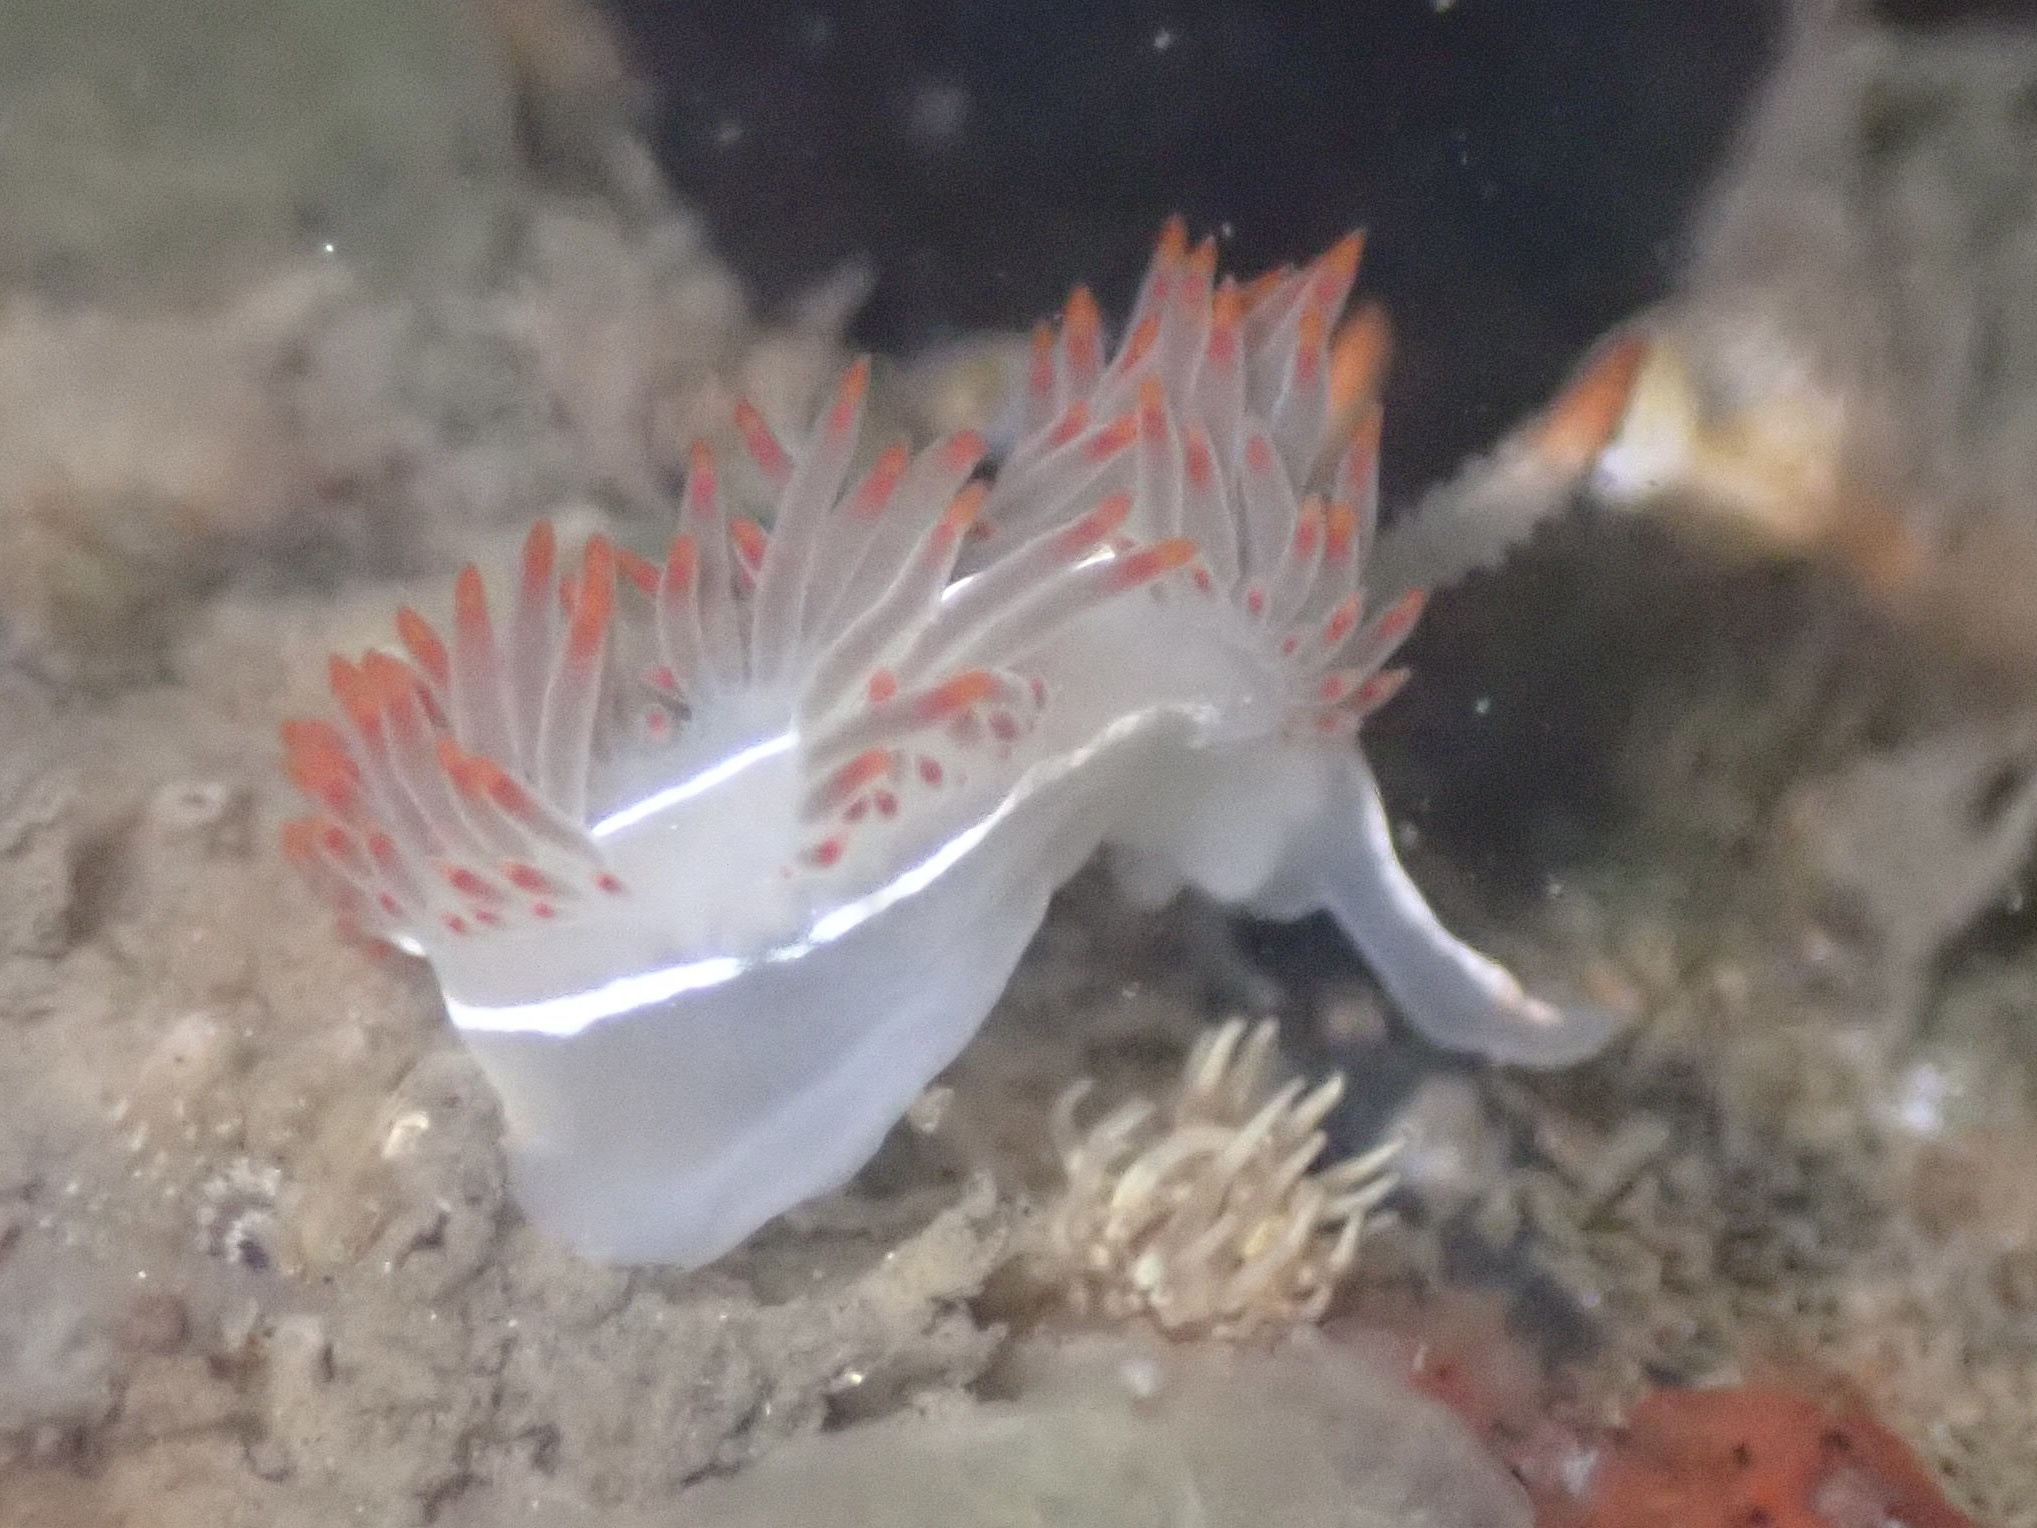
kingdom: Animalia
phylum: Mollusca
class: Gastropoda
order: Nudibranchia
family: Coryphellidae
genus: Coryphella
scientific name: Coryphella trilineata
